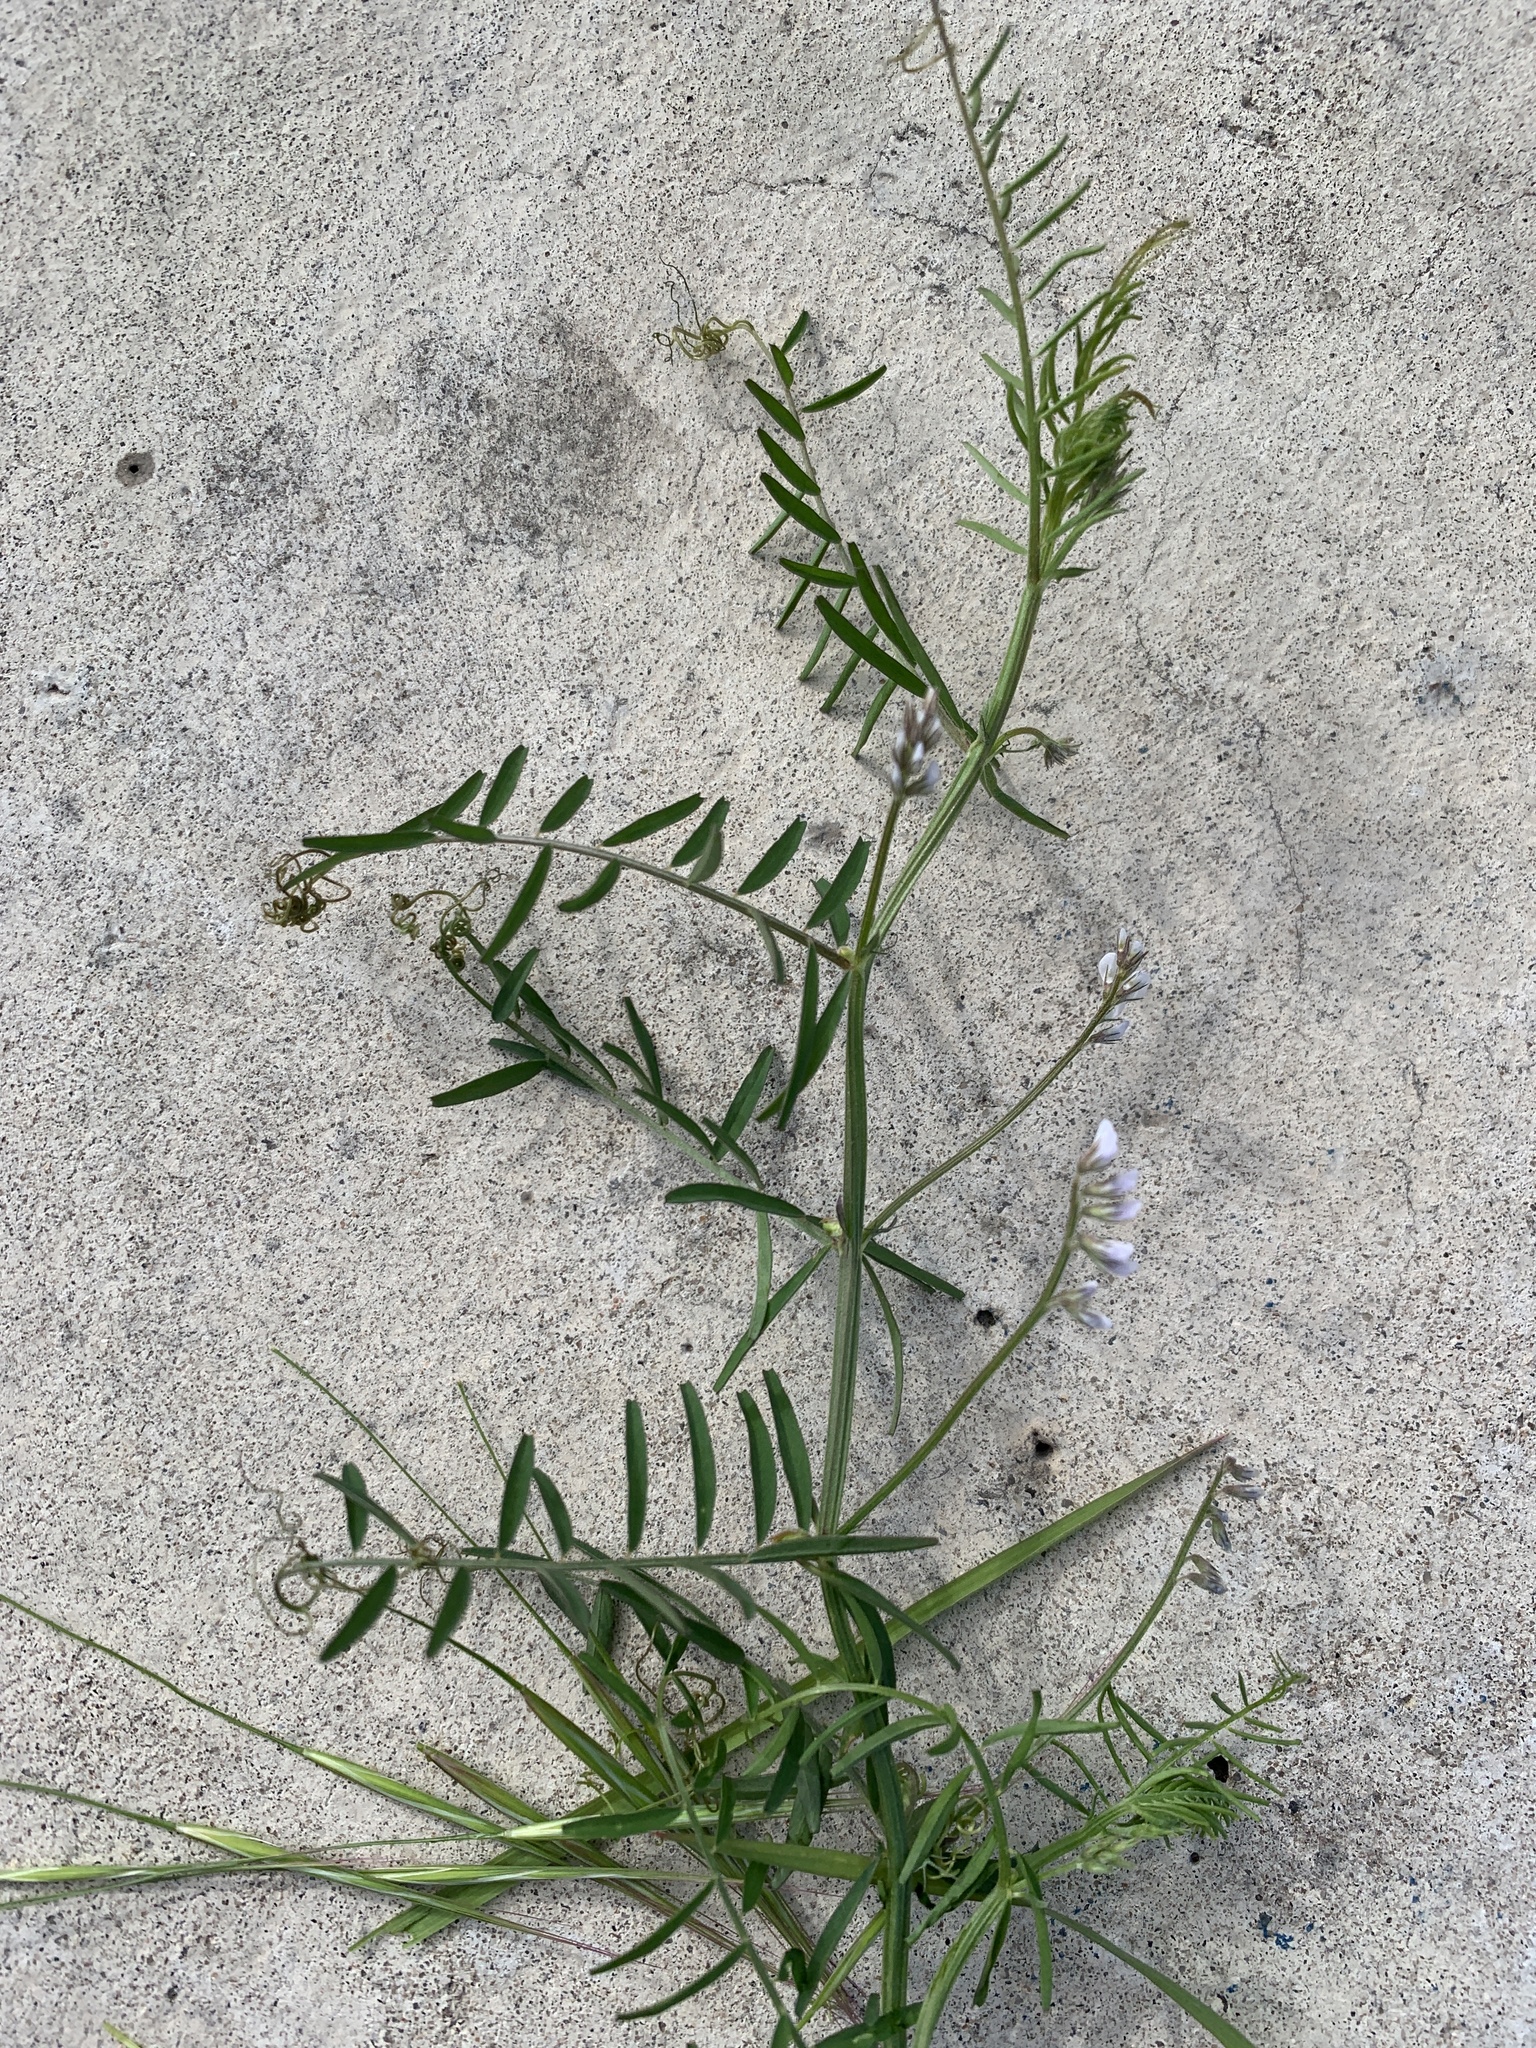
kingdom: Plantae
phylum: Tracheophyta
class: Magnoliopsida
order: Fabales
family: Fabaceae
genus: Vicia
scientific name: Vicia hirsuta
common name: Tiny vetch
